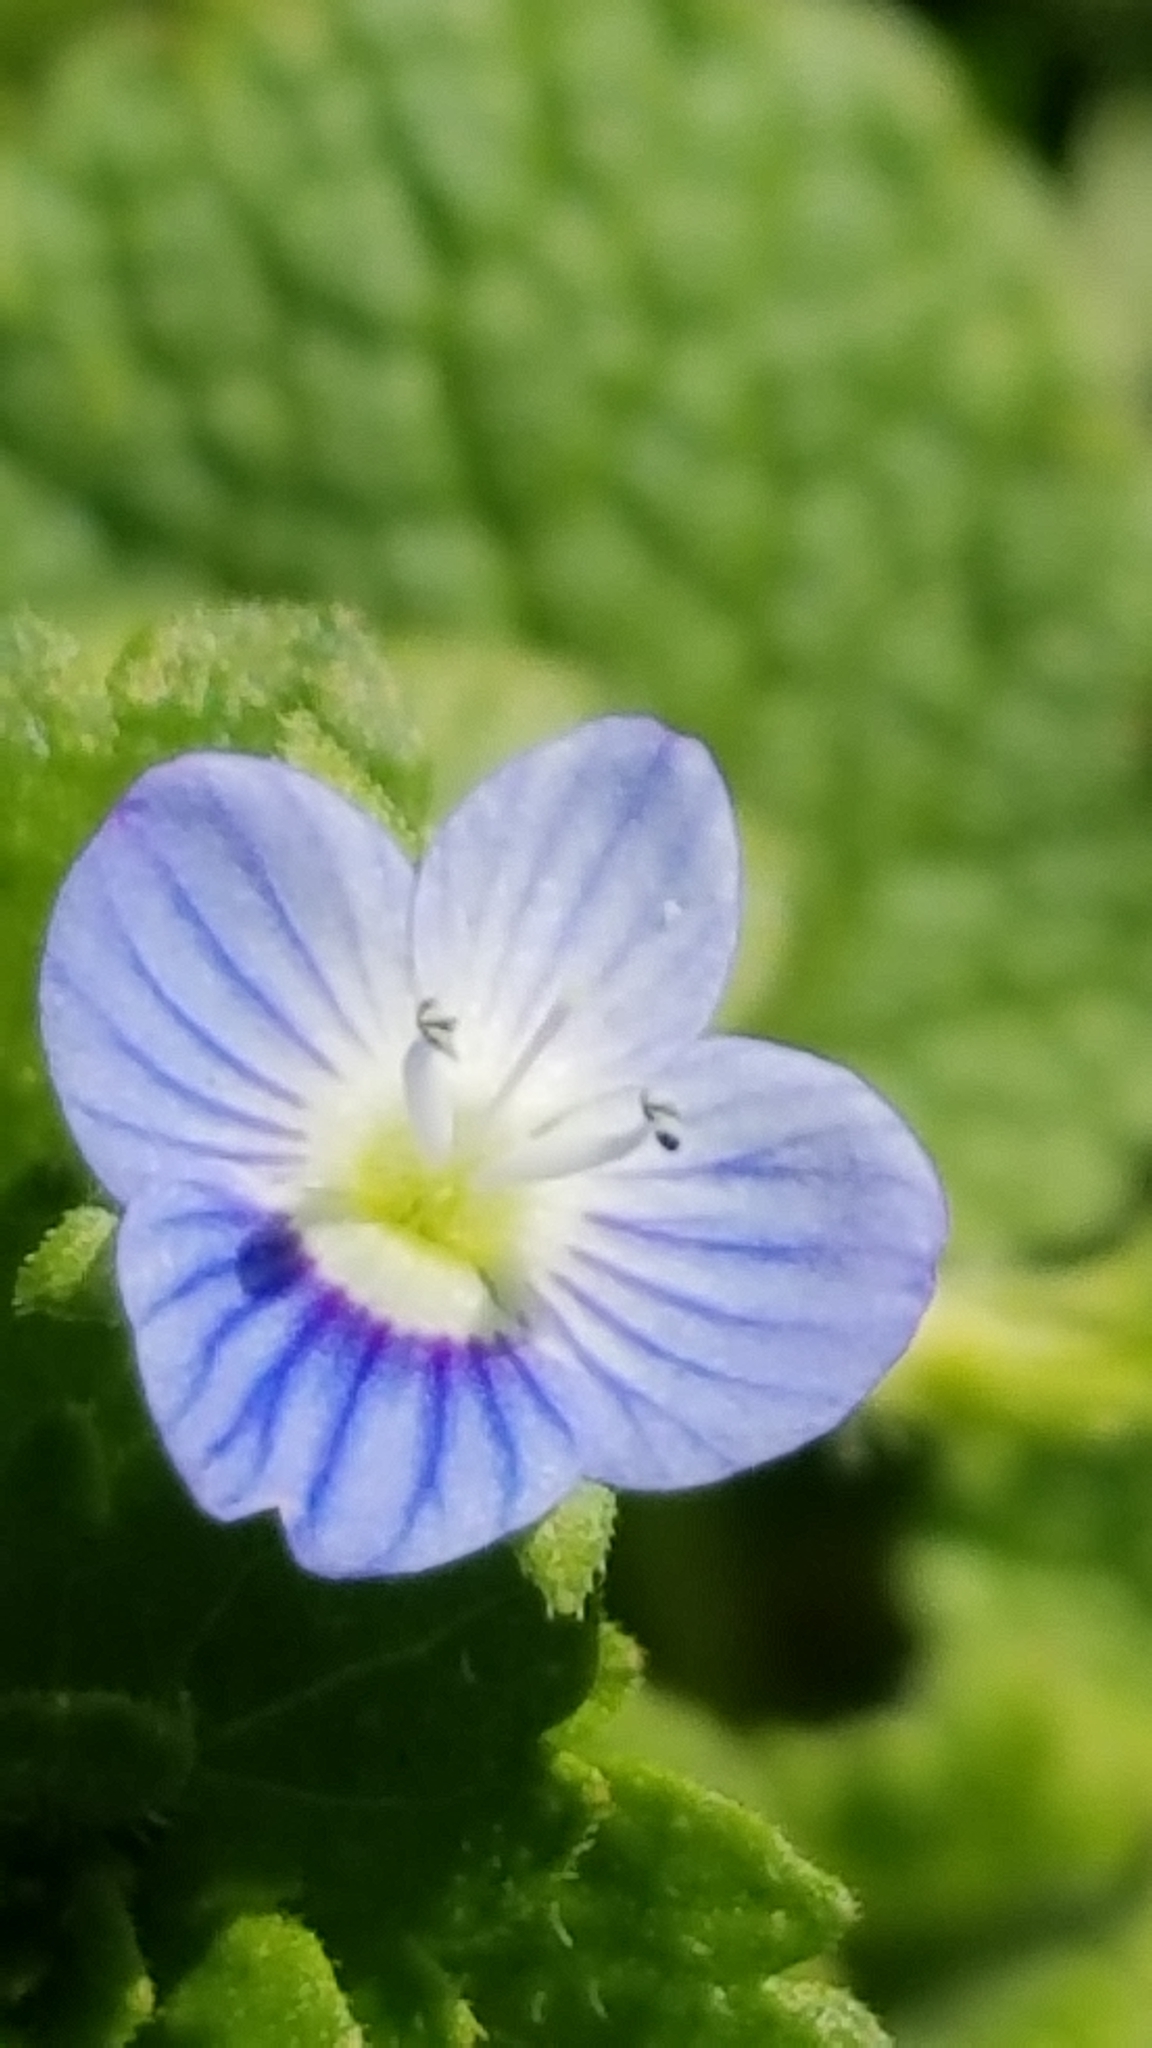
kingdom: Plantae
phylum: Tracheophyta
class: Magnoliopsida
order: Lamiales
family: Plantaginaceae
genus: Veronica
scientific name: Veronica persica
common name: Common field-speedwell
